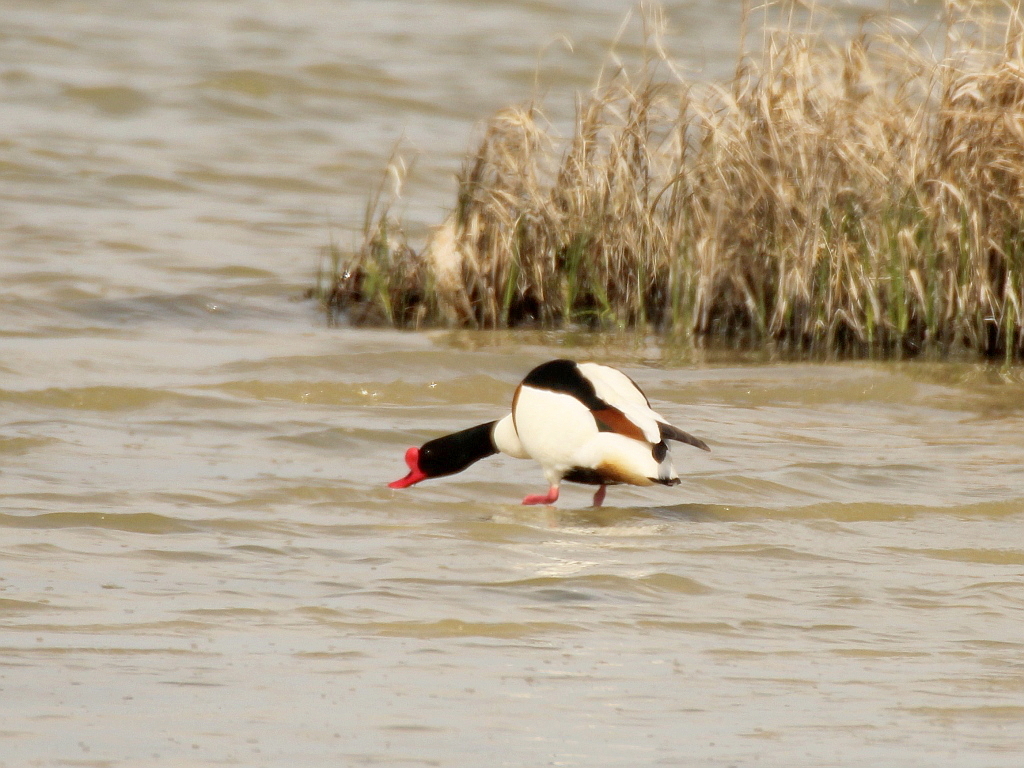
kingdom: Animalia
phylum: Chordata
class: Aves
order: Anseriformes
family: Anatidae
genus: Tadorna
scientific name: Tadorna tadorna
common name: Common shelduck
